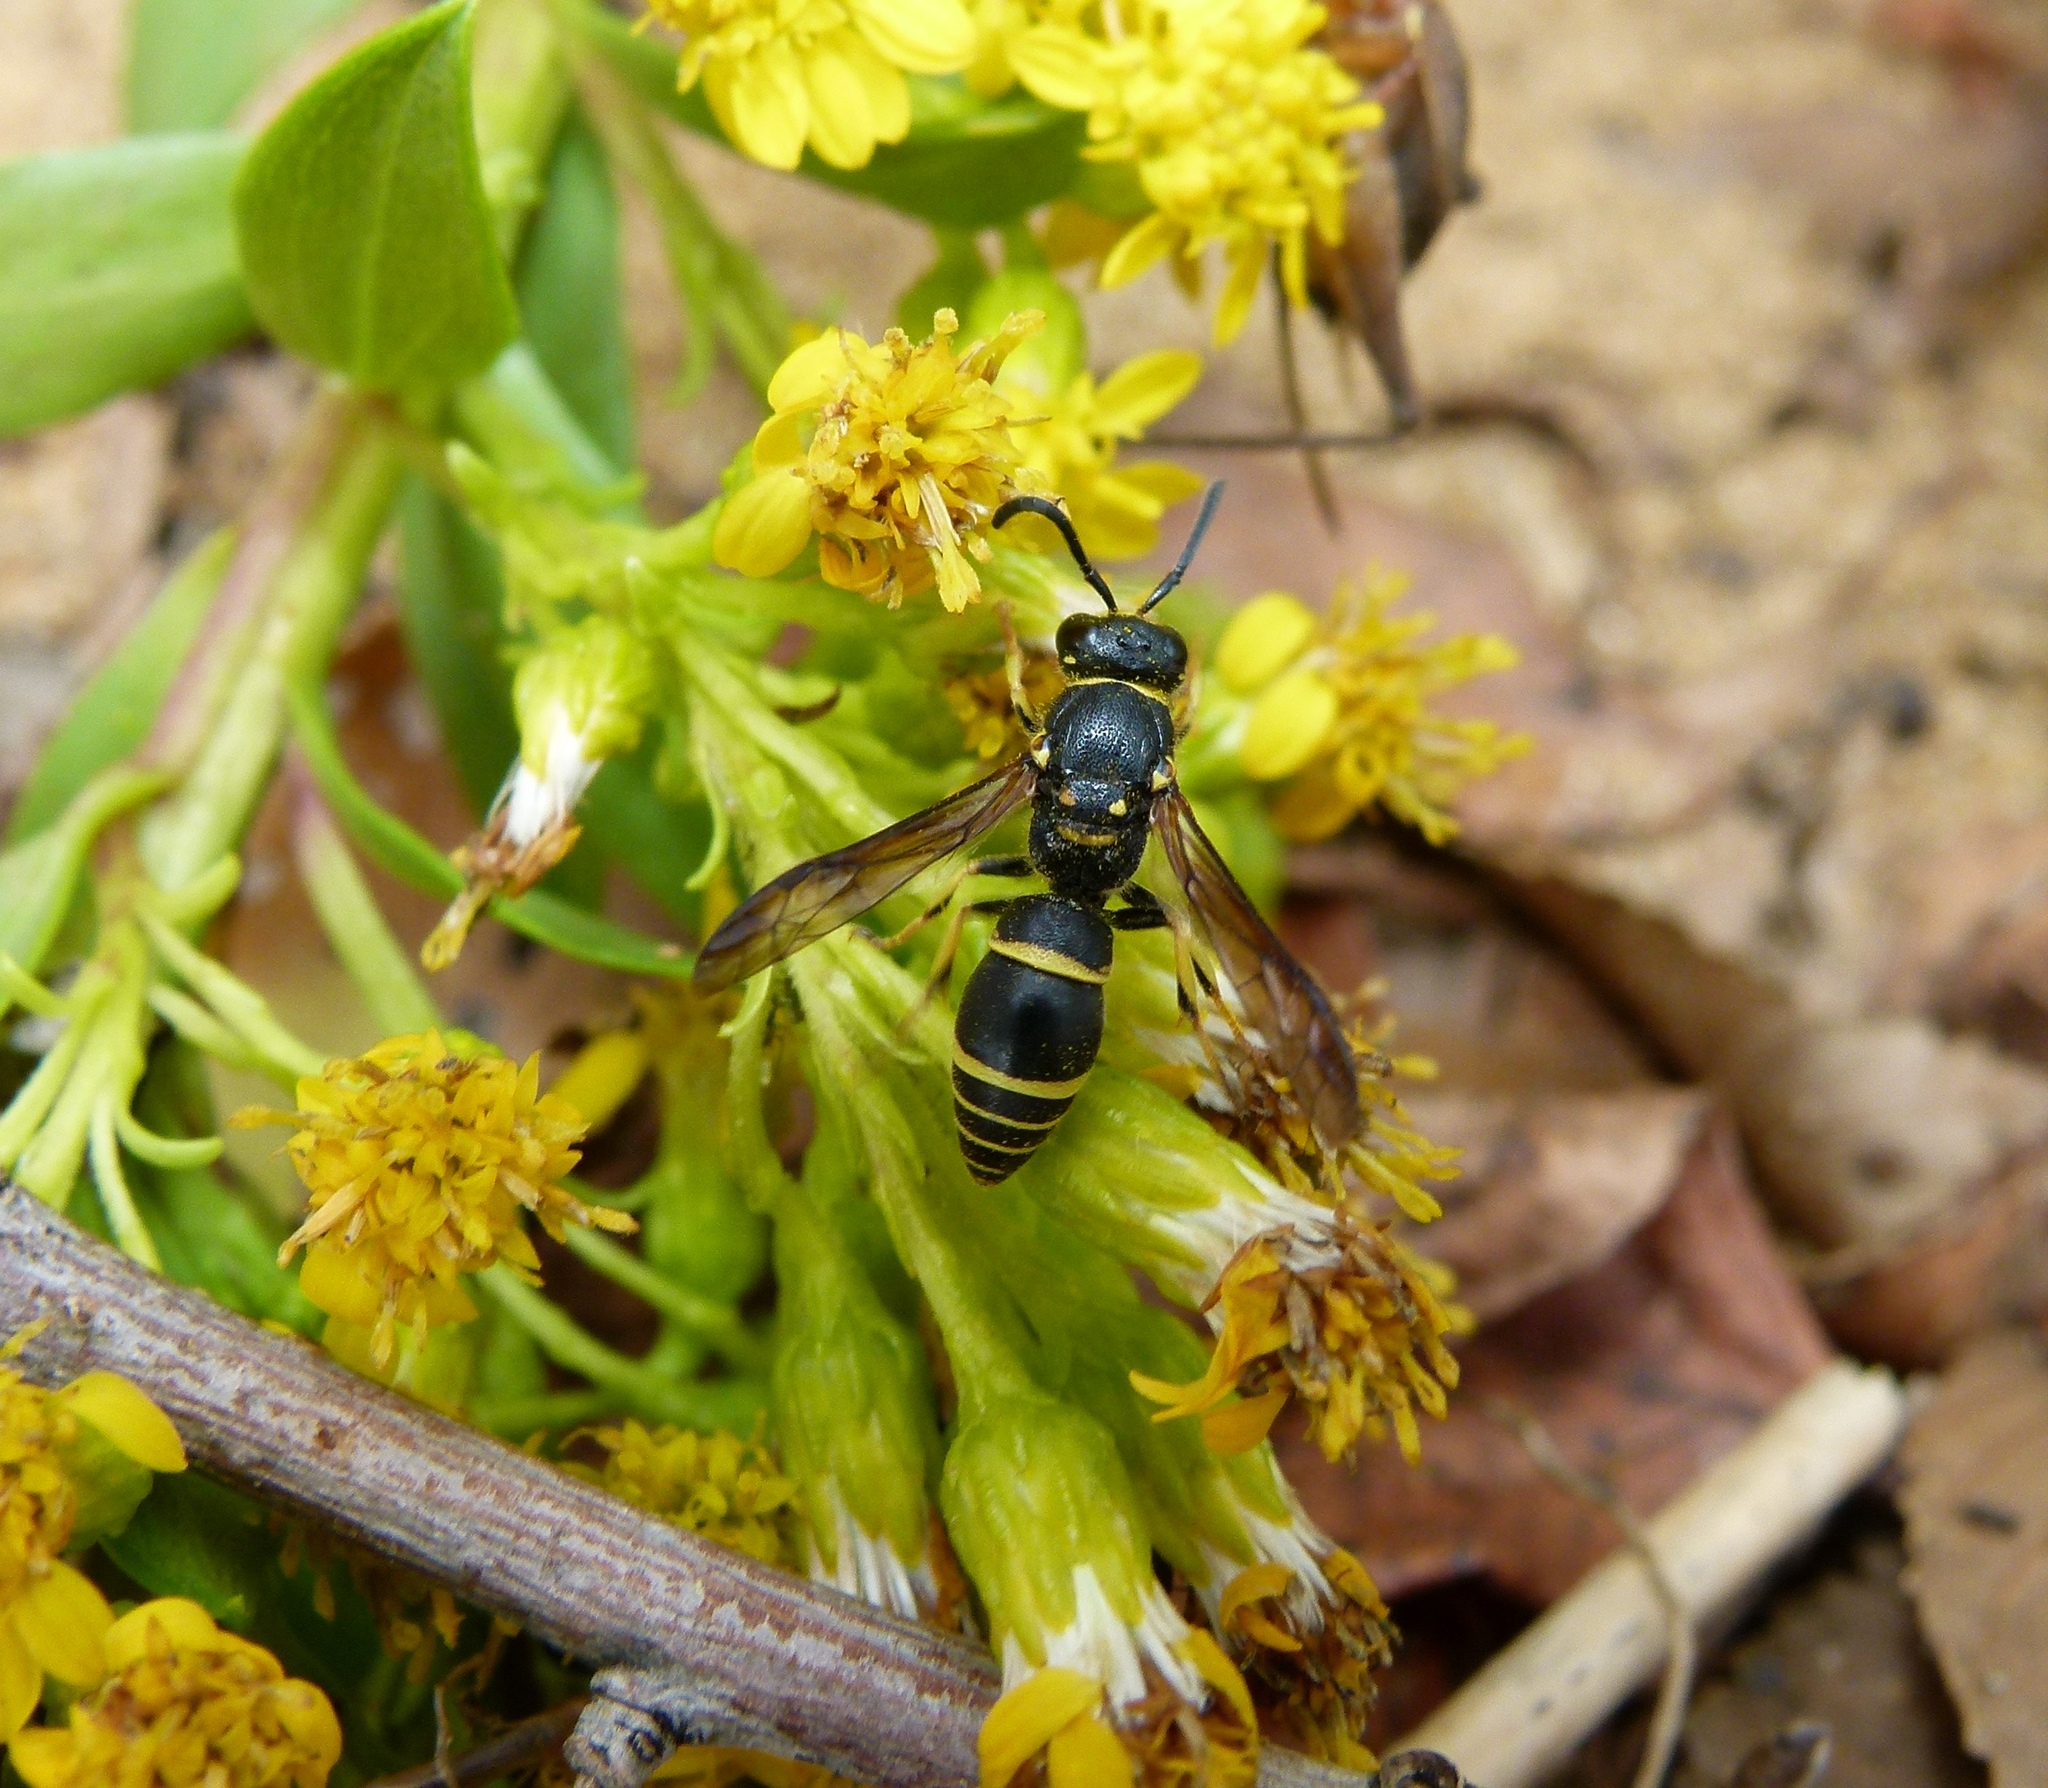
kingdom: Animalia
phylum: Arthropoda
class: Insecta
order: Hymenoptera
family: Vespidae
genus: Ancistrocerus
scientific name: Ancistrocerus adiabatus
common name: Bramble mason wasp
